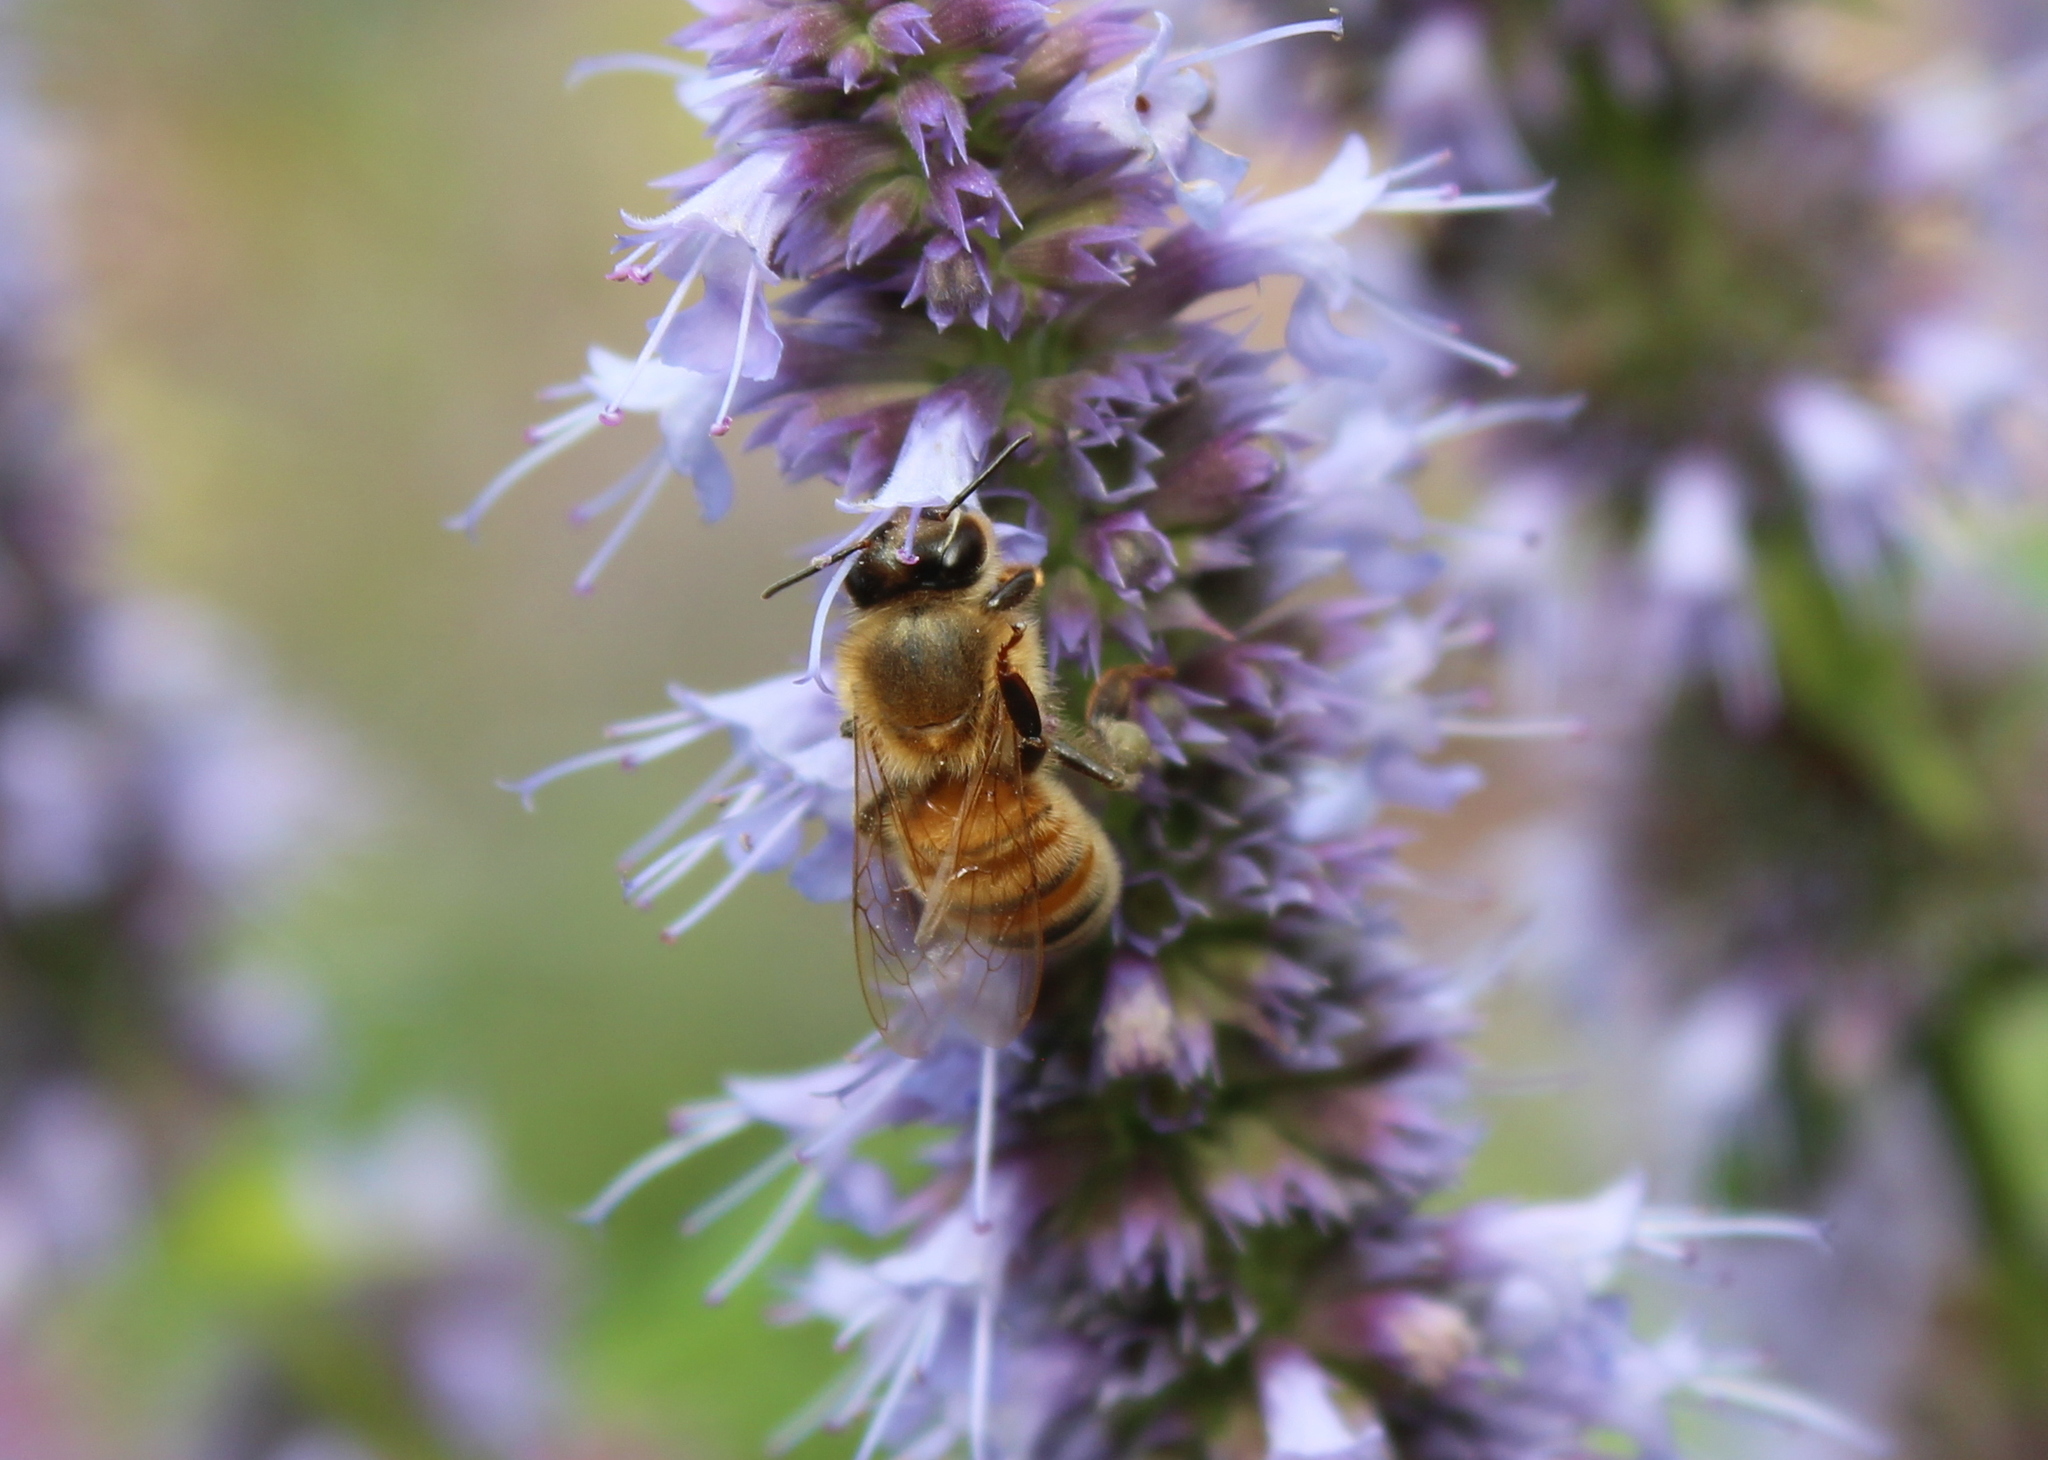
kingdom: Animalia
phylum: Arthropoda
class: Insecta
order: Hymenoptera
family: Apidae
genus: Apis
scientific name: Apis mellifera
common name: Honey bee
